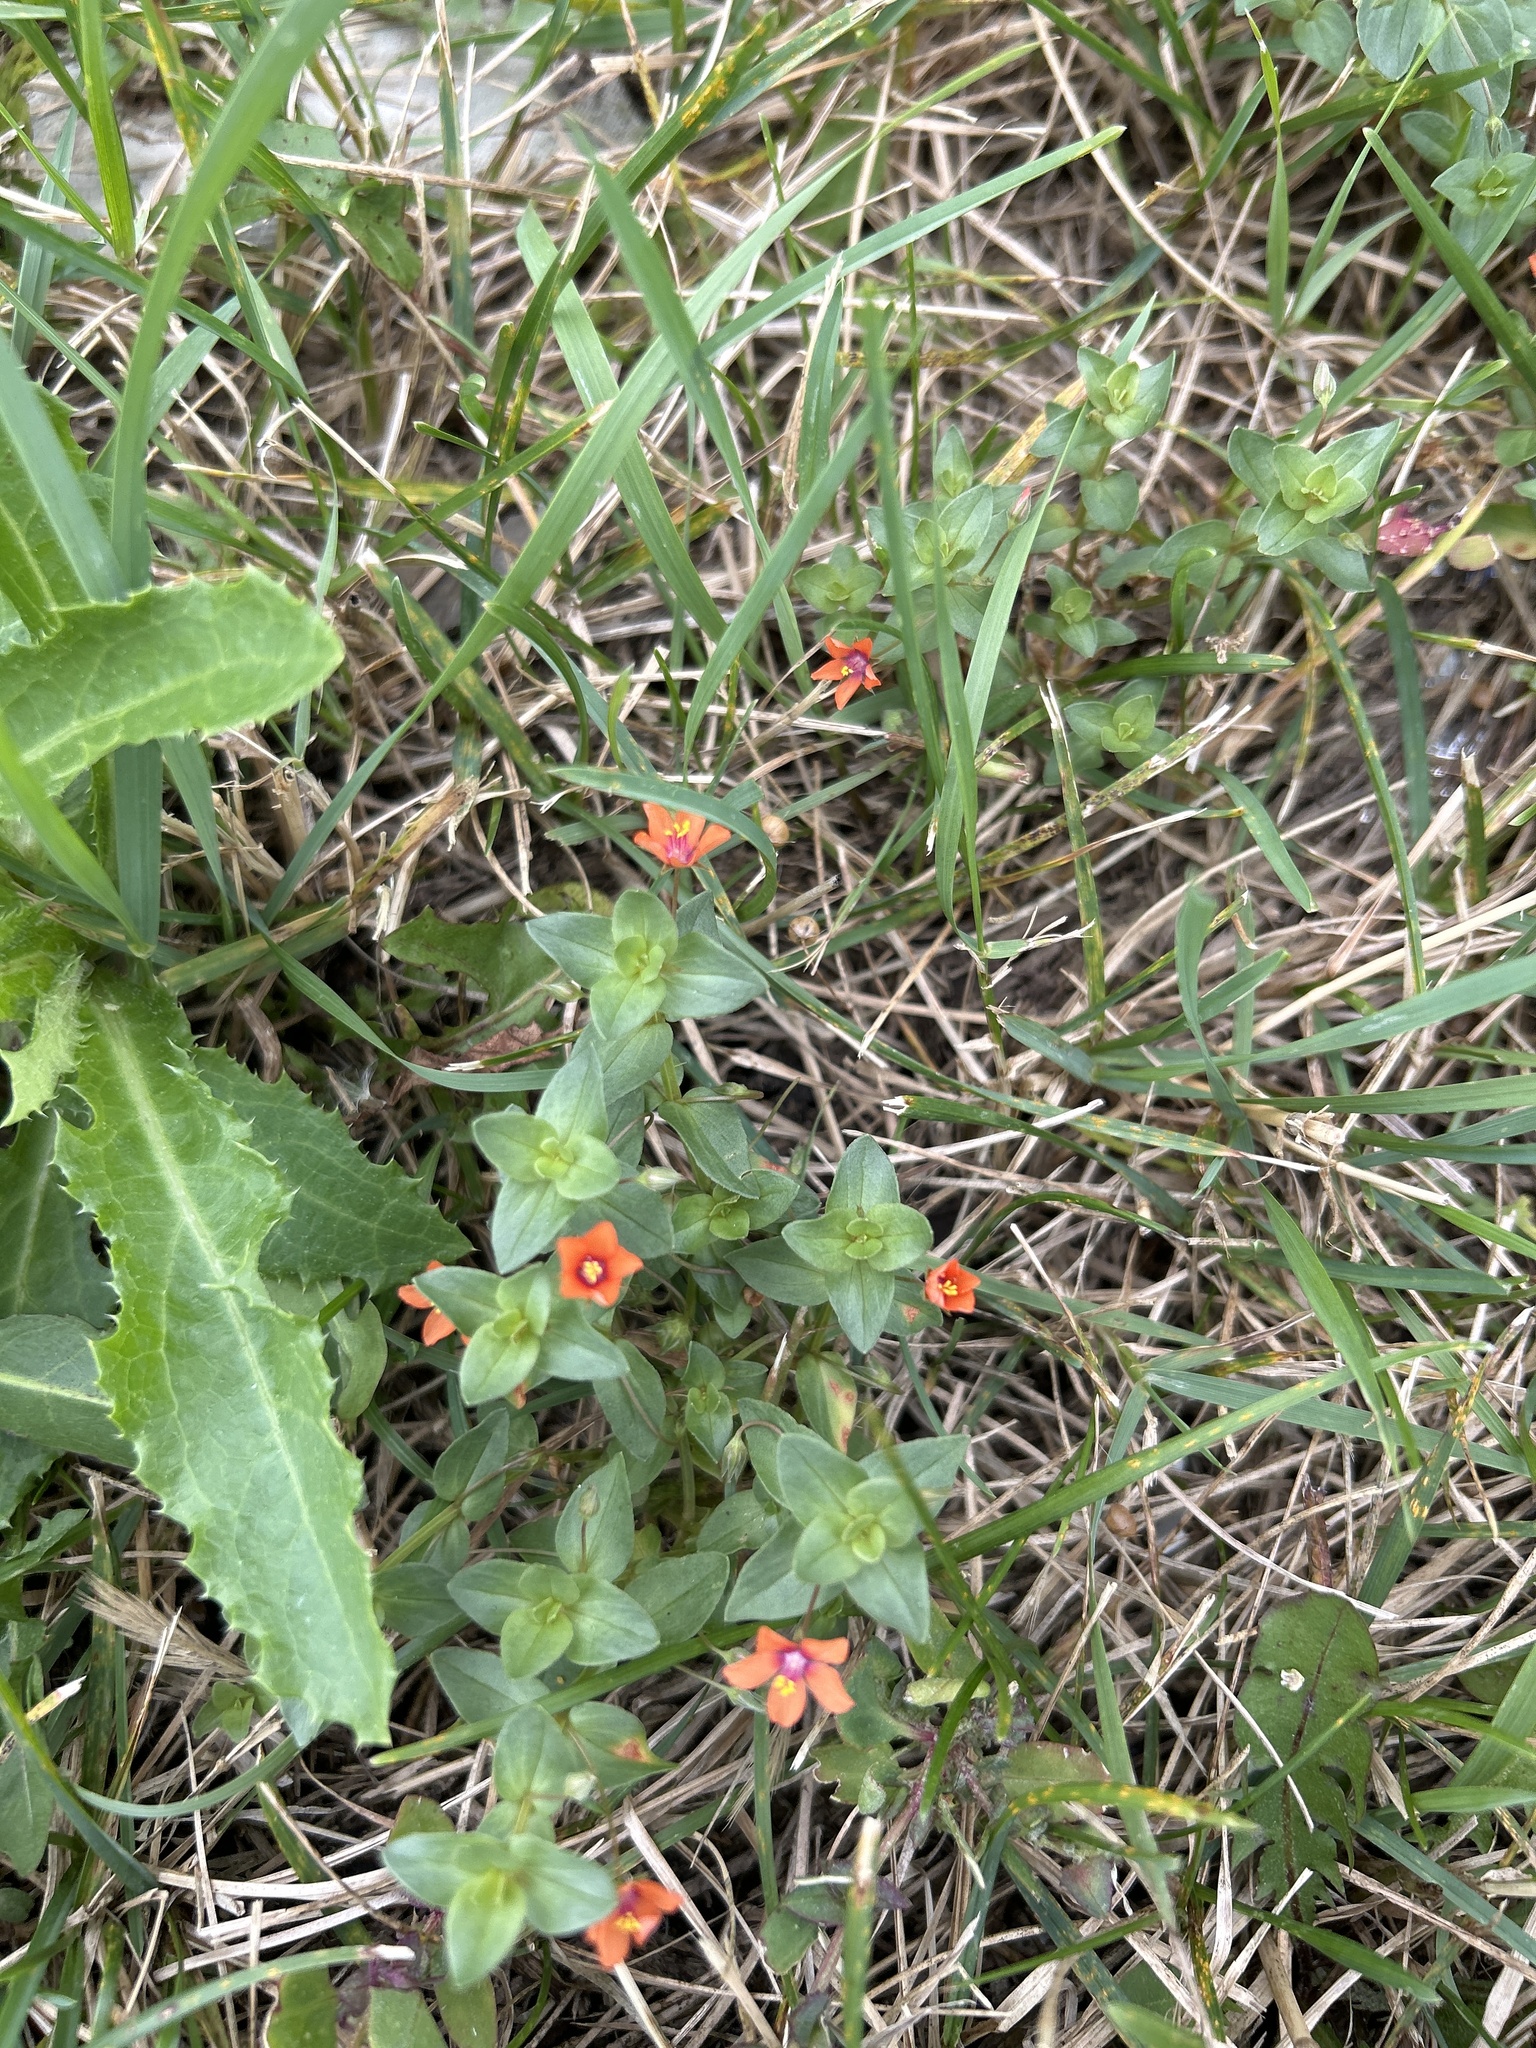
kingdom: Plantae
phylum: Tracheophyta
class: Magnoliopsida
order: Ericales
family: Primulaceae
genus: Lysimachia
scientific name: Lysimachia arvensis
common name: Scarlet pimpernel
